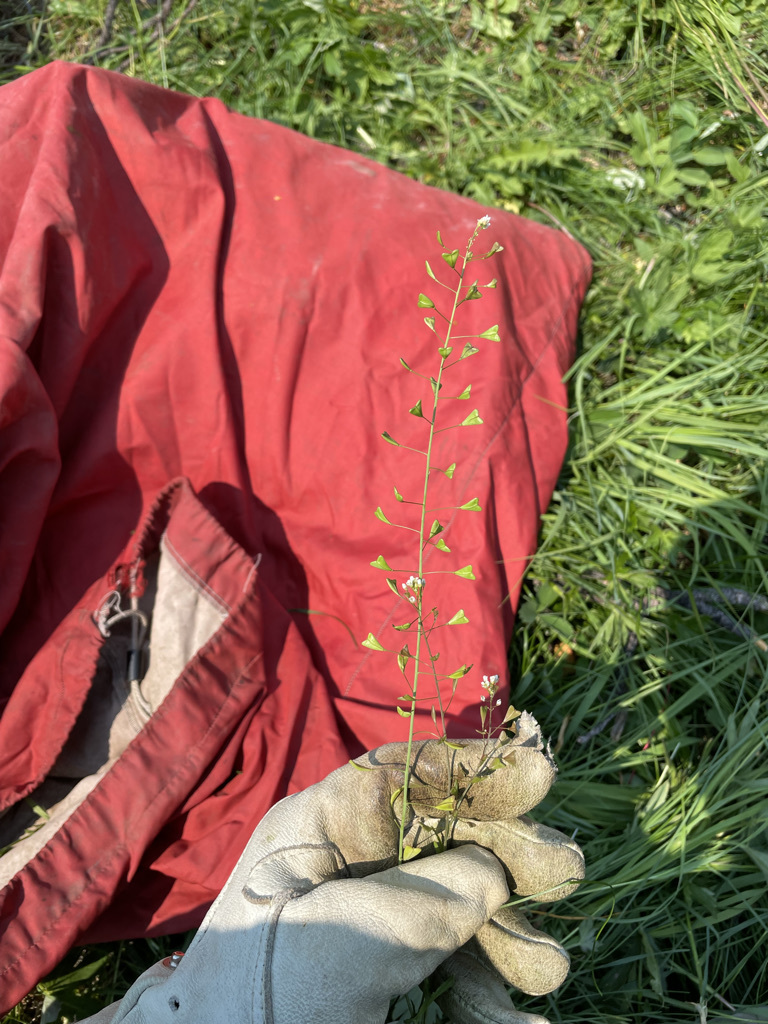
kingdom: Plantae
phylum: Tracheophyta
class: Magnoliopsida
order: Brassicales
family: Brassicaceae
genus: Capsella
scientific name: Capsella bursa-pastoris
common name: Shepherd's purse
